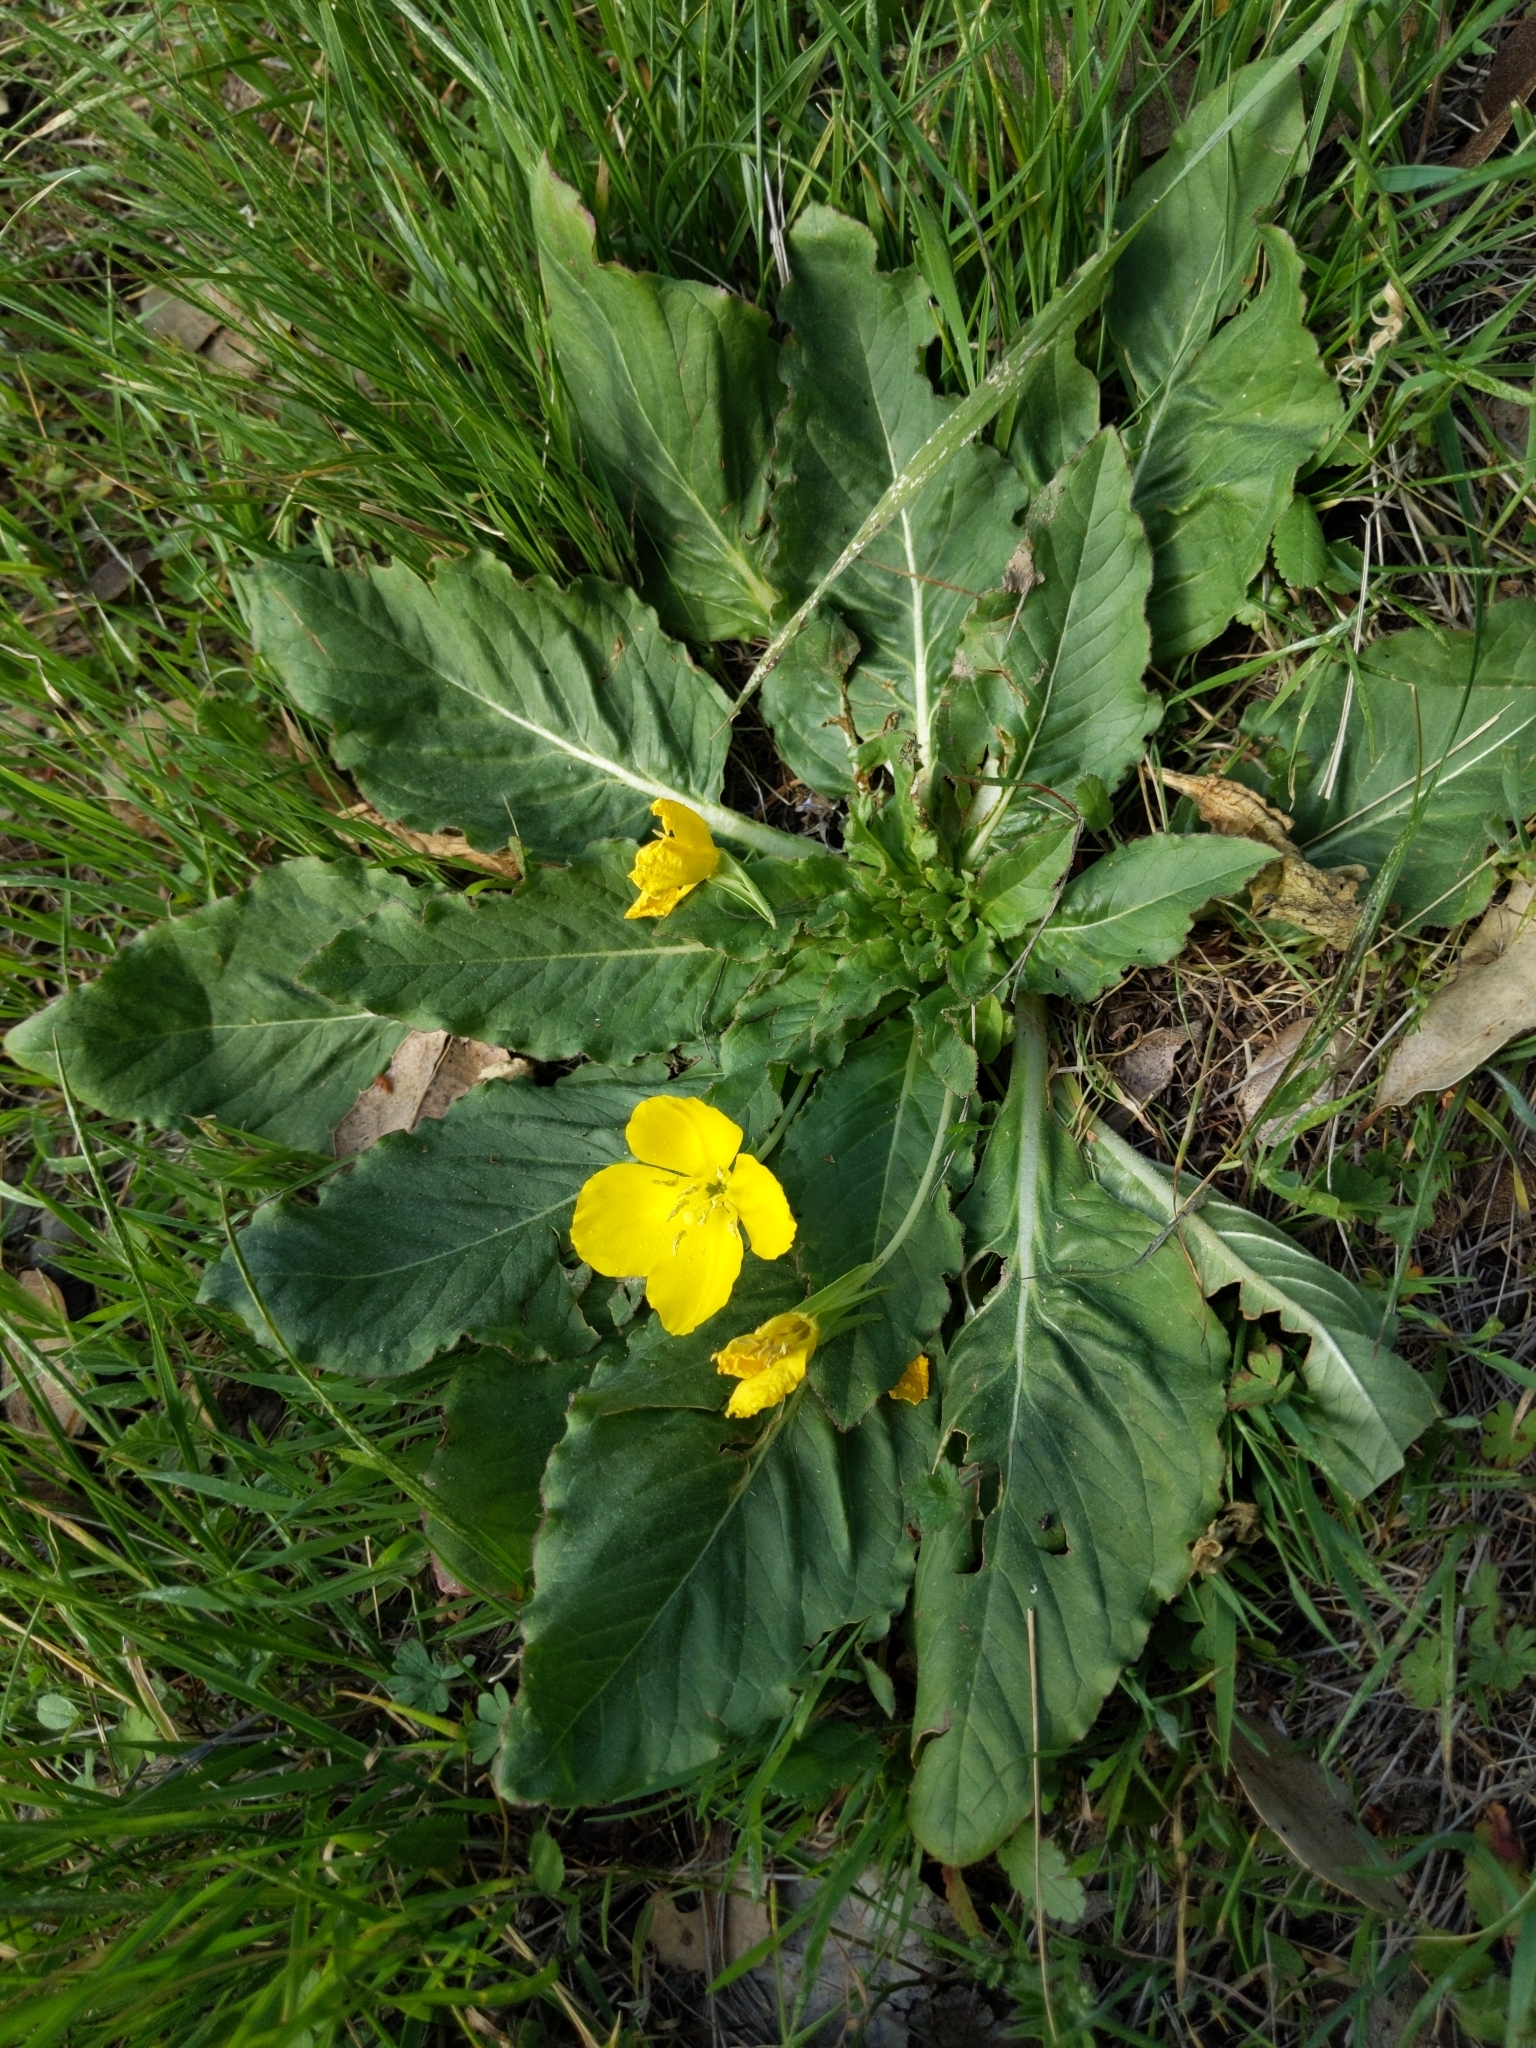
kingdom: Plantae
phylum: Tracheophyta
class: Magnoliopsida
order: Myrtales
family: Onagraceae
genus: Taraxia
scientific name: Taraxia ovata
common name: Goldeneggs
